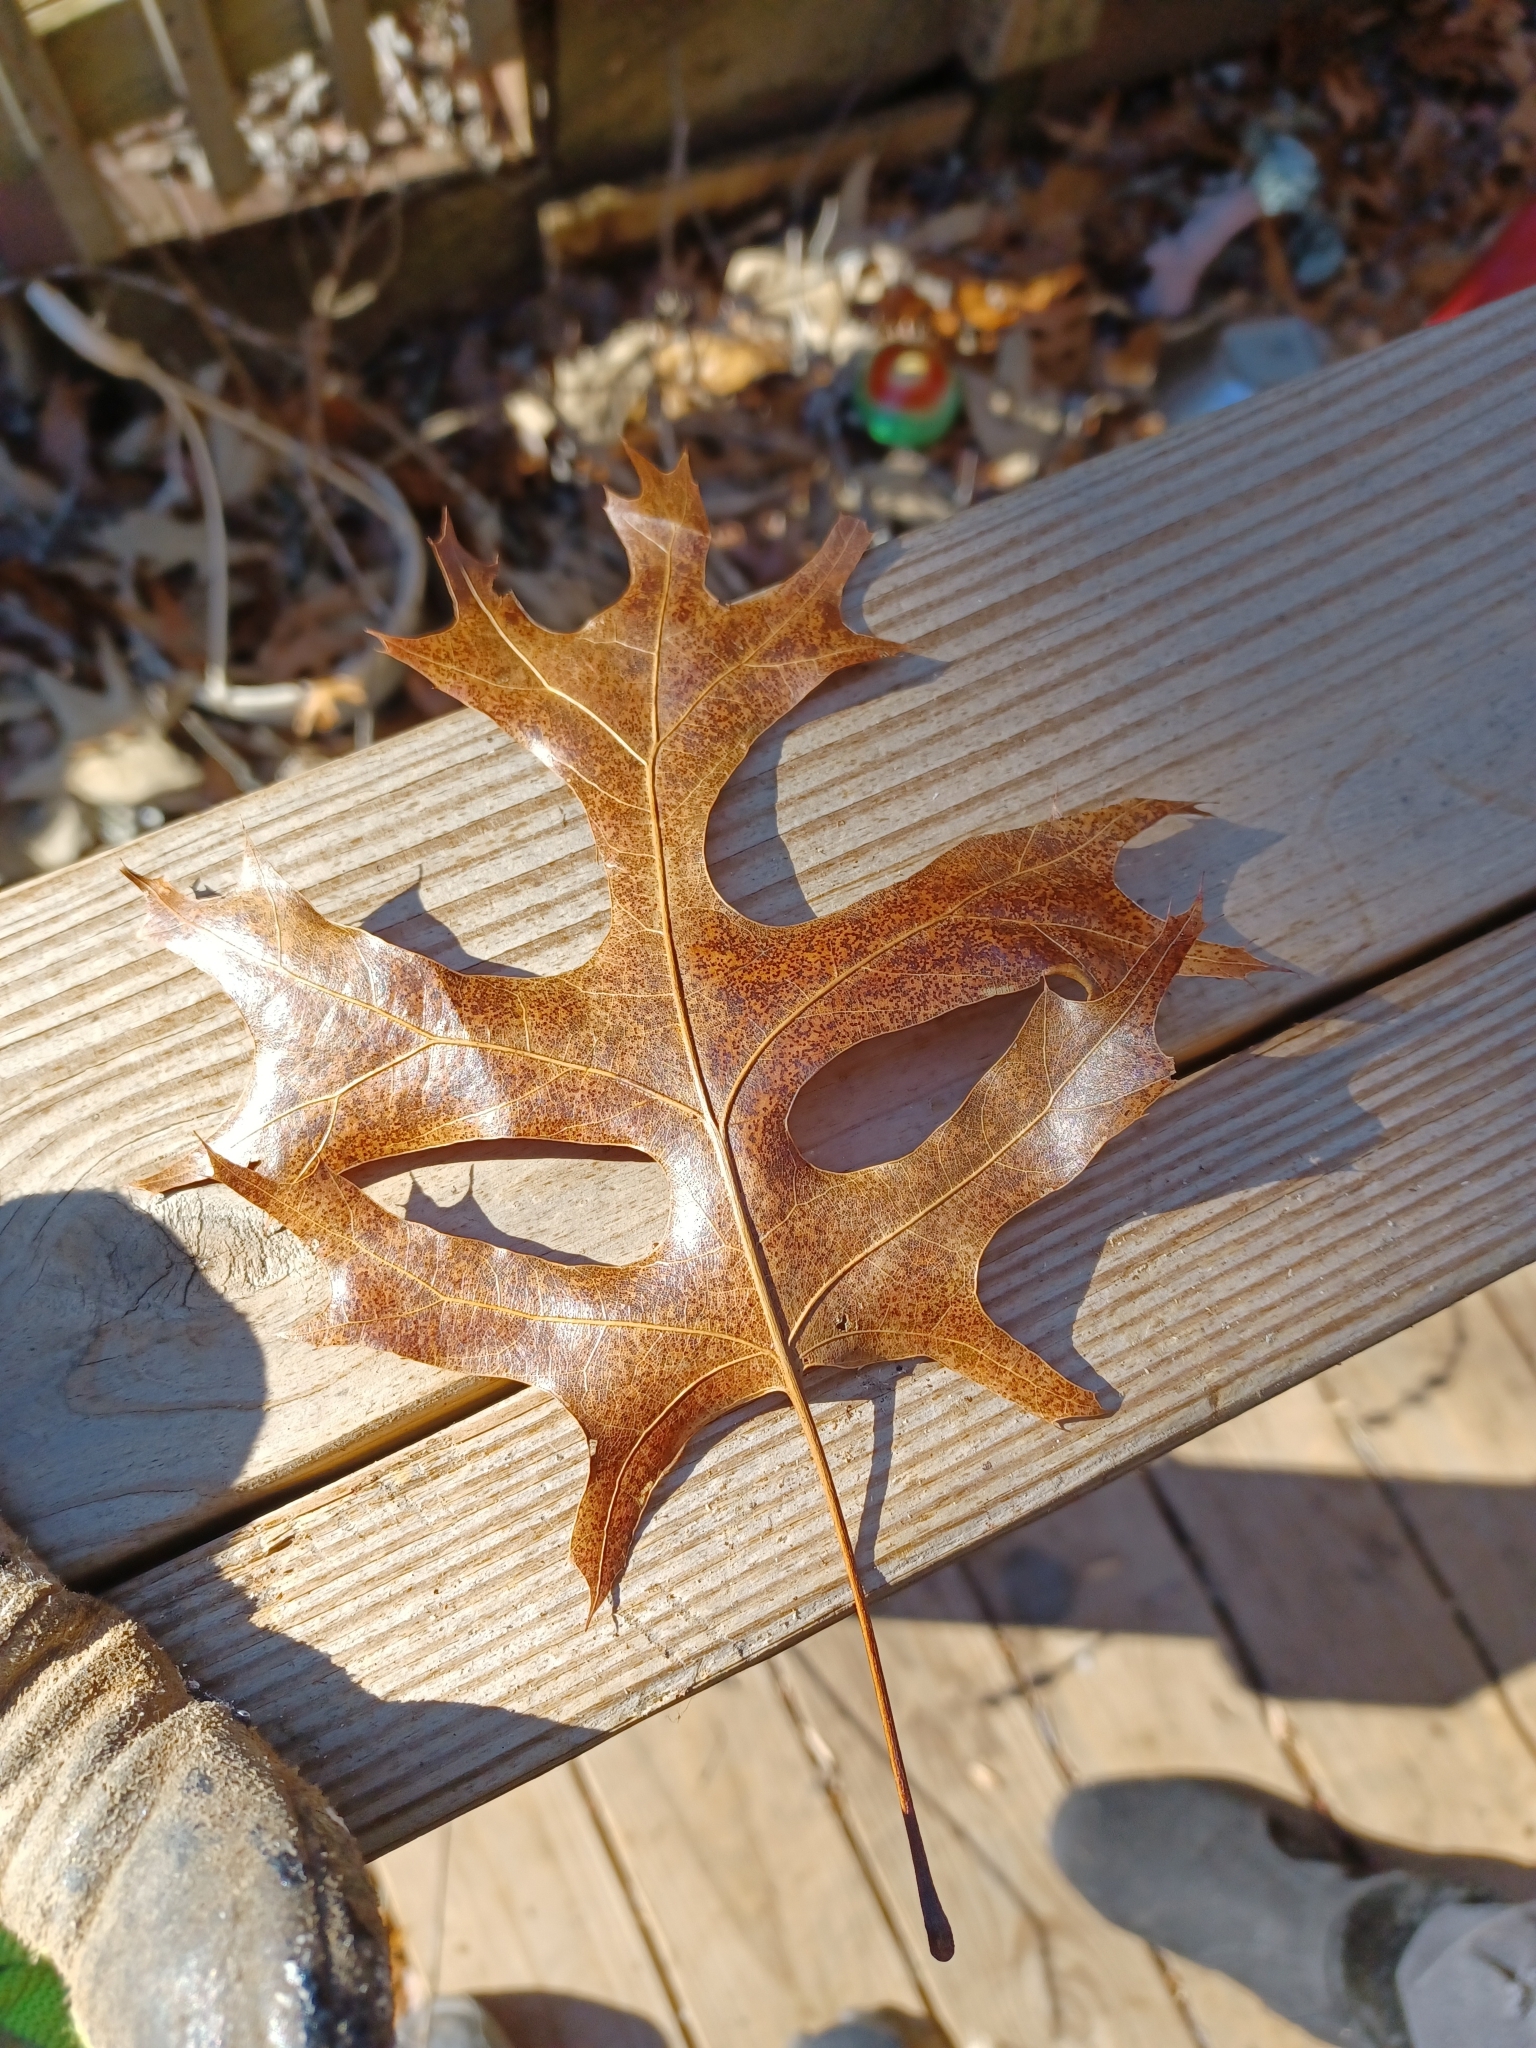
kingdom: Plantae
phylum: Tracheophyta
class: Magnoliopsida
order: Fagales
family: Fagaceae
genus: Quercus
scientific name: Quercus palustris
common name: Pin oak
